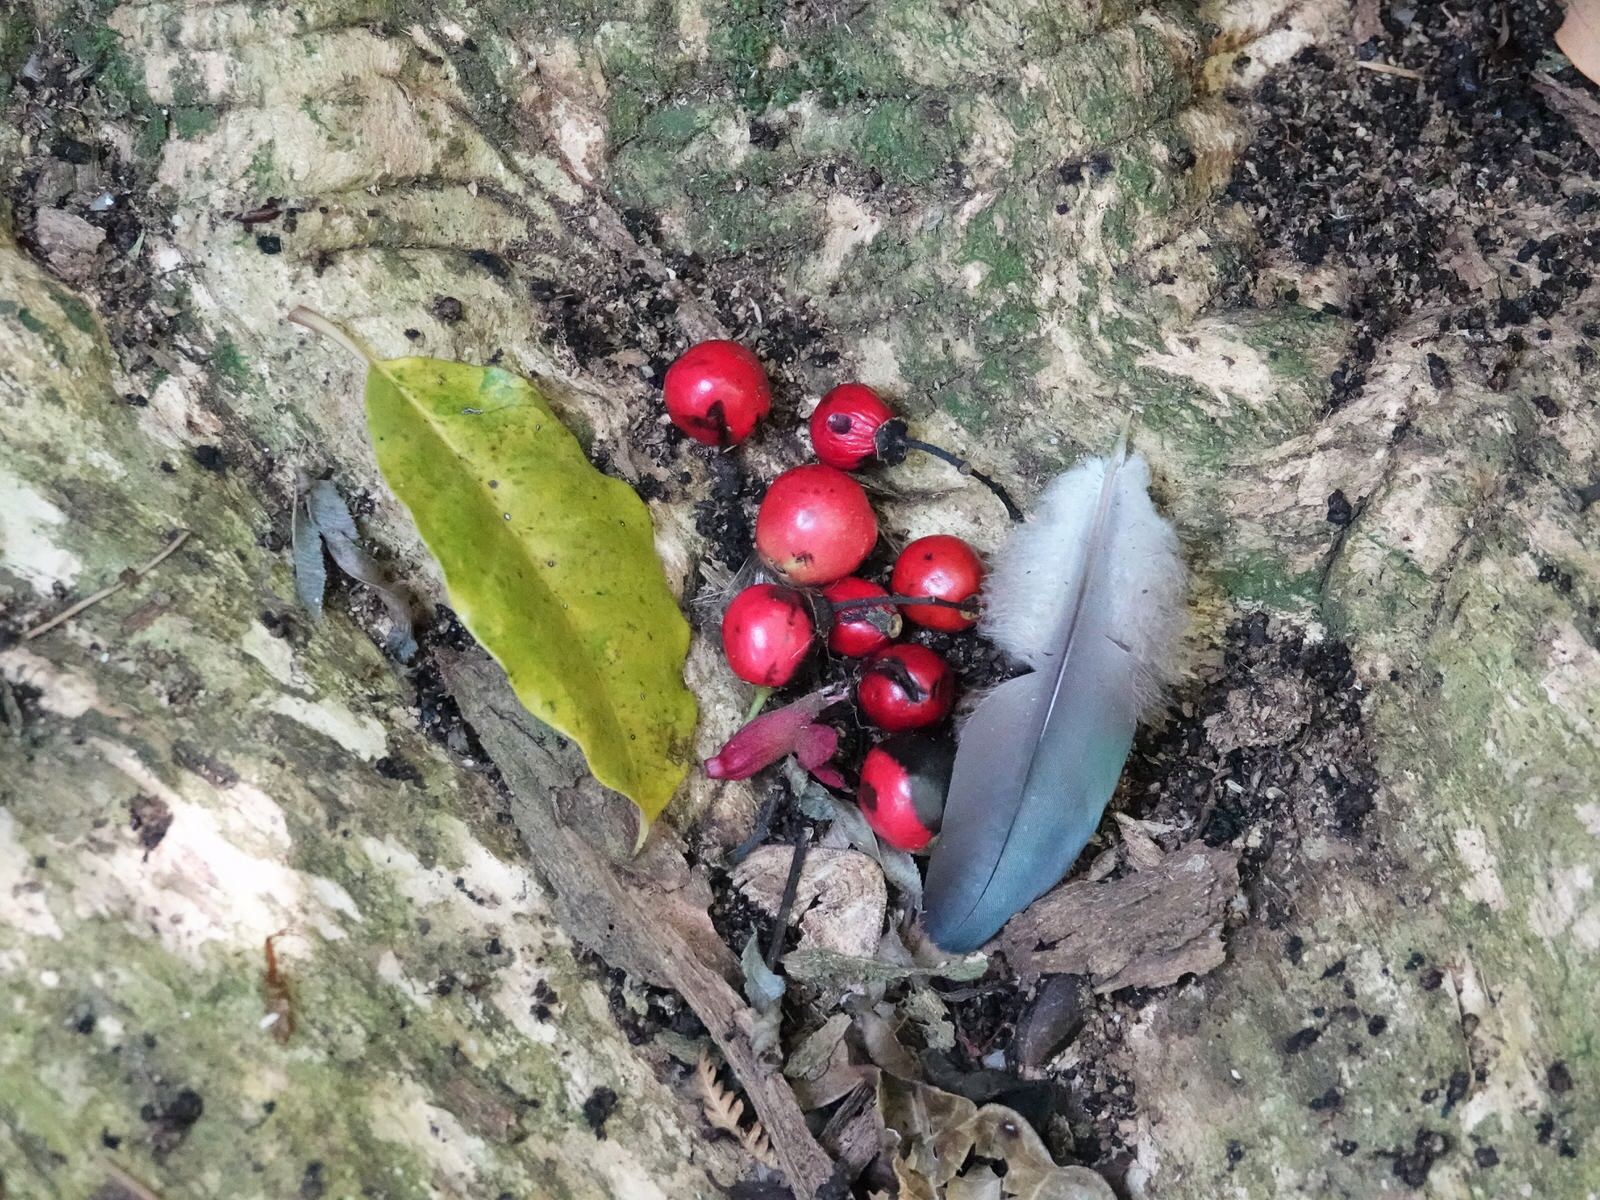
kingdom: Plantae
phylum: Tracheophyta
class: Magnoliopsida
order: Lamiales
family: Lamiaceae
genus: Vitex
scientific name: Vitex lucens
